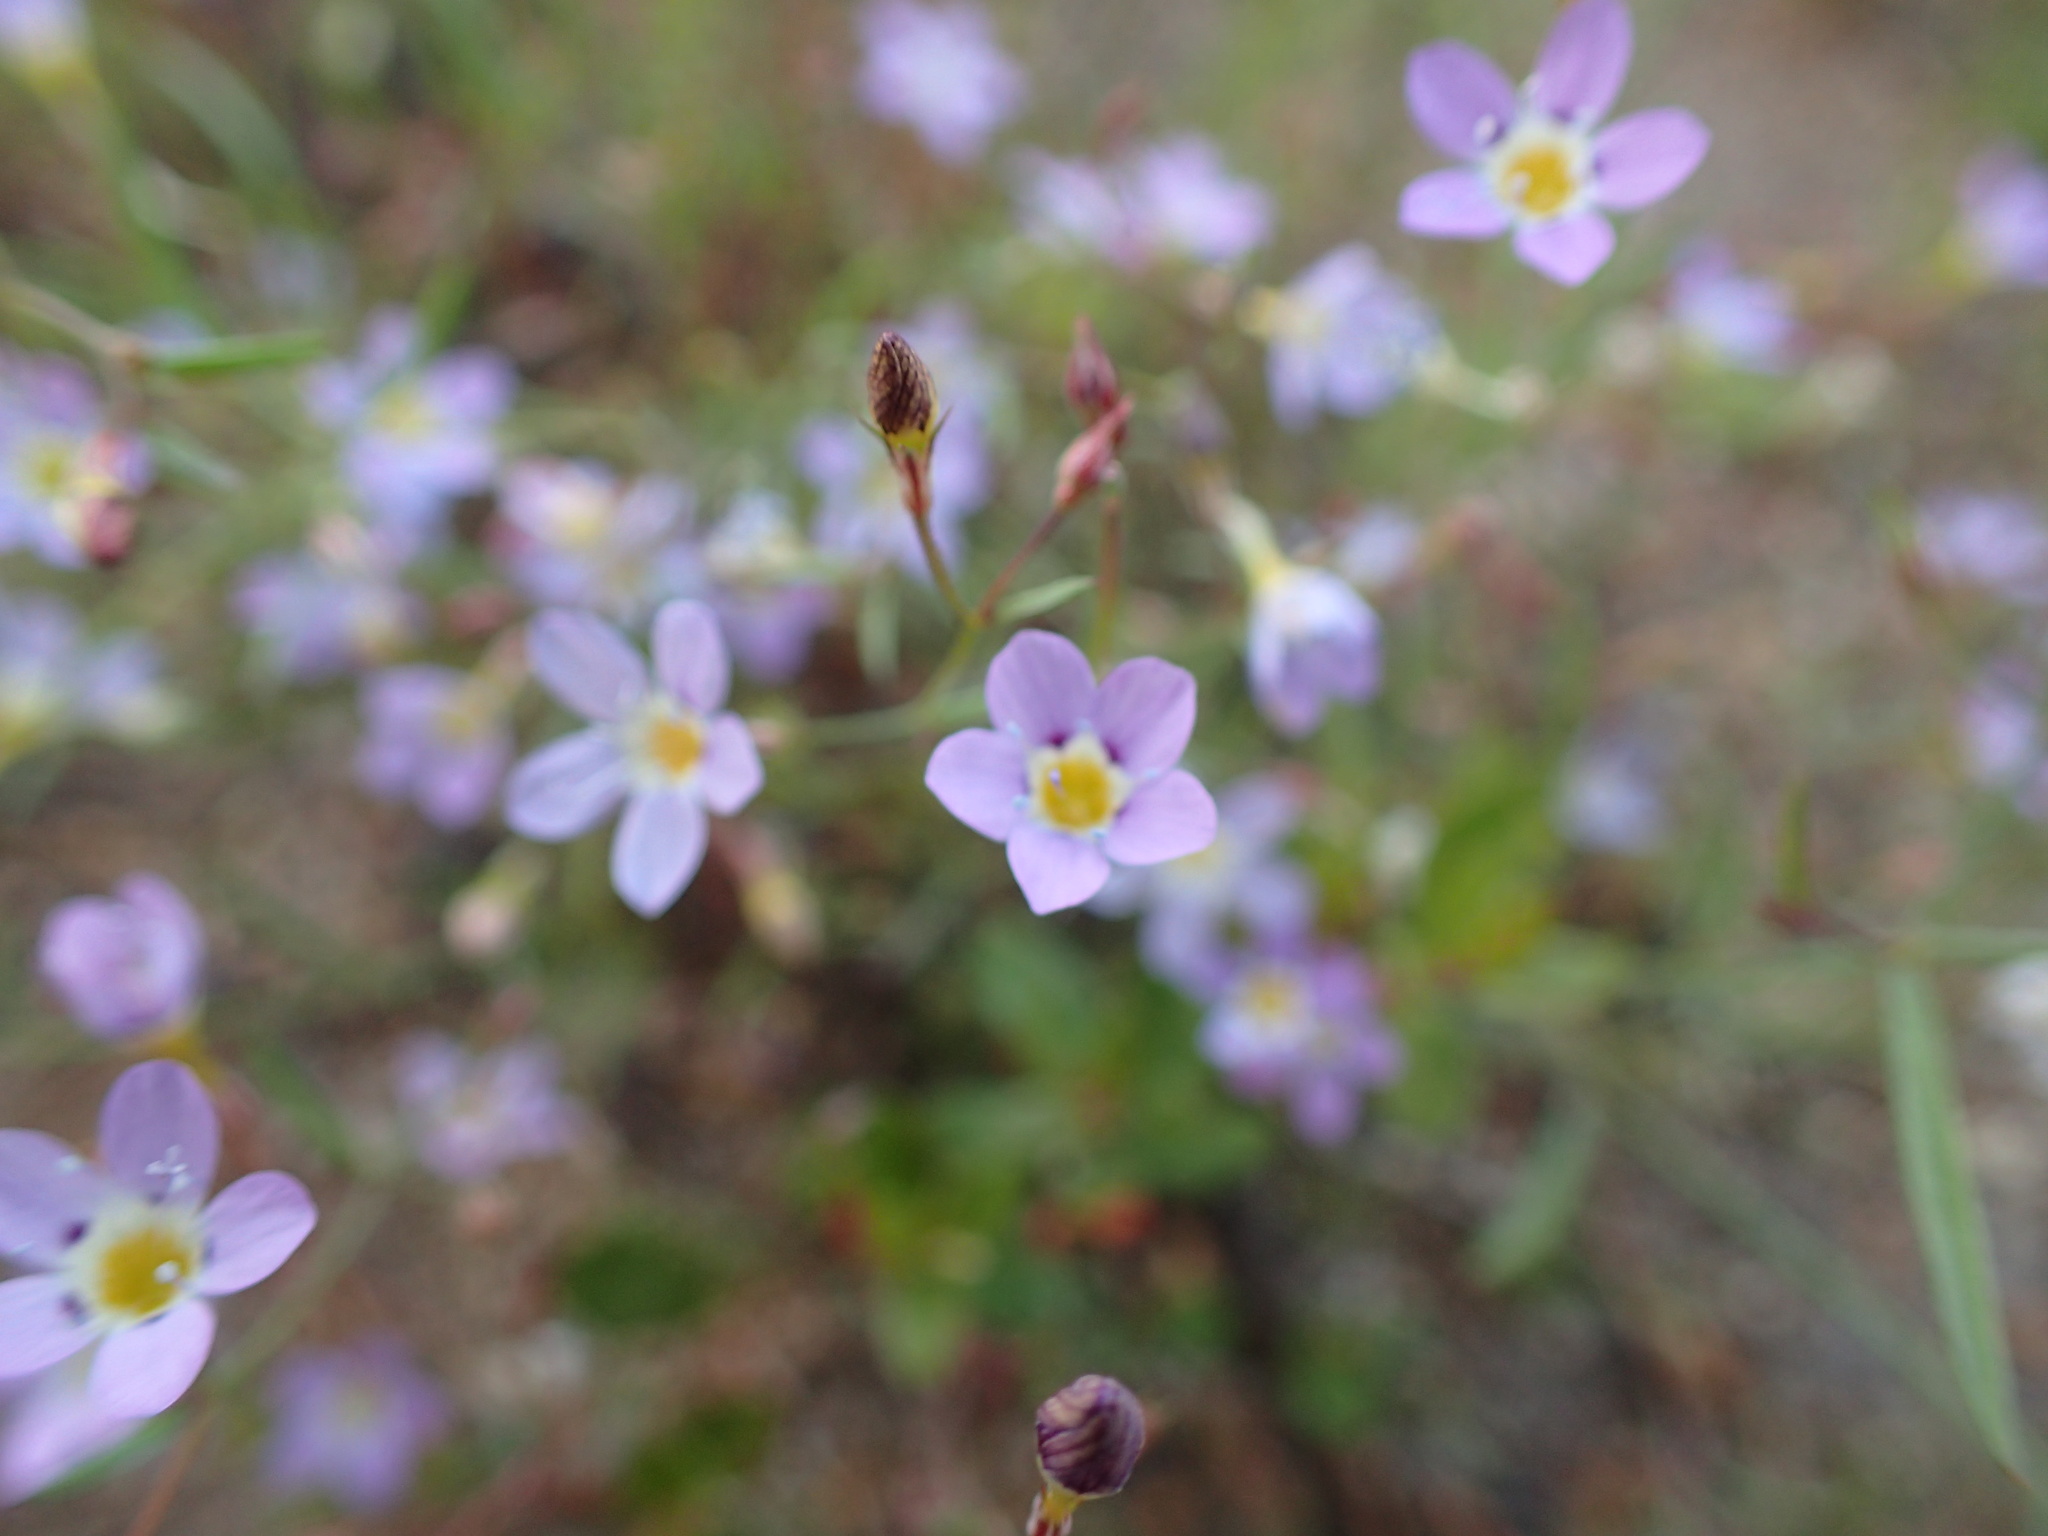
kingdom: Plantae
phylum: Tracheophyta
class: Magnoliopsida
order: Ericales
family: Polemoniaceae
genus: Navarretia
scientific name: Navarretia leptalea
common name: Bridges' pincushionplant
